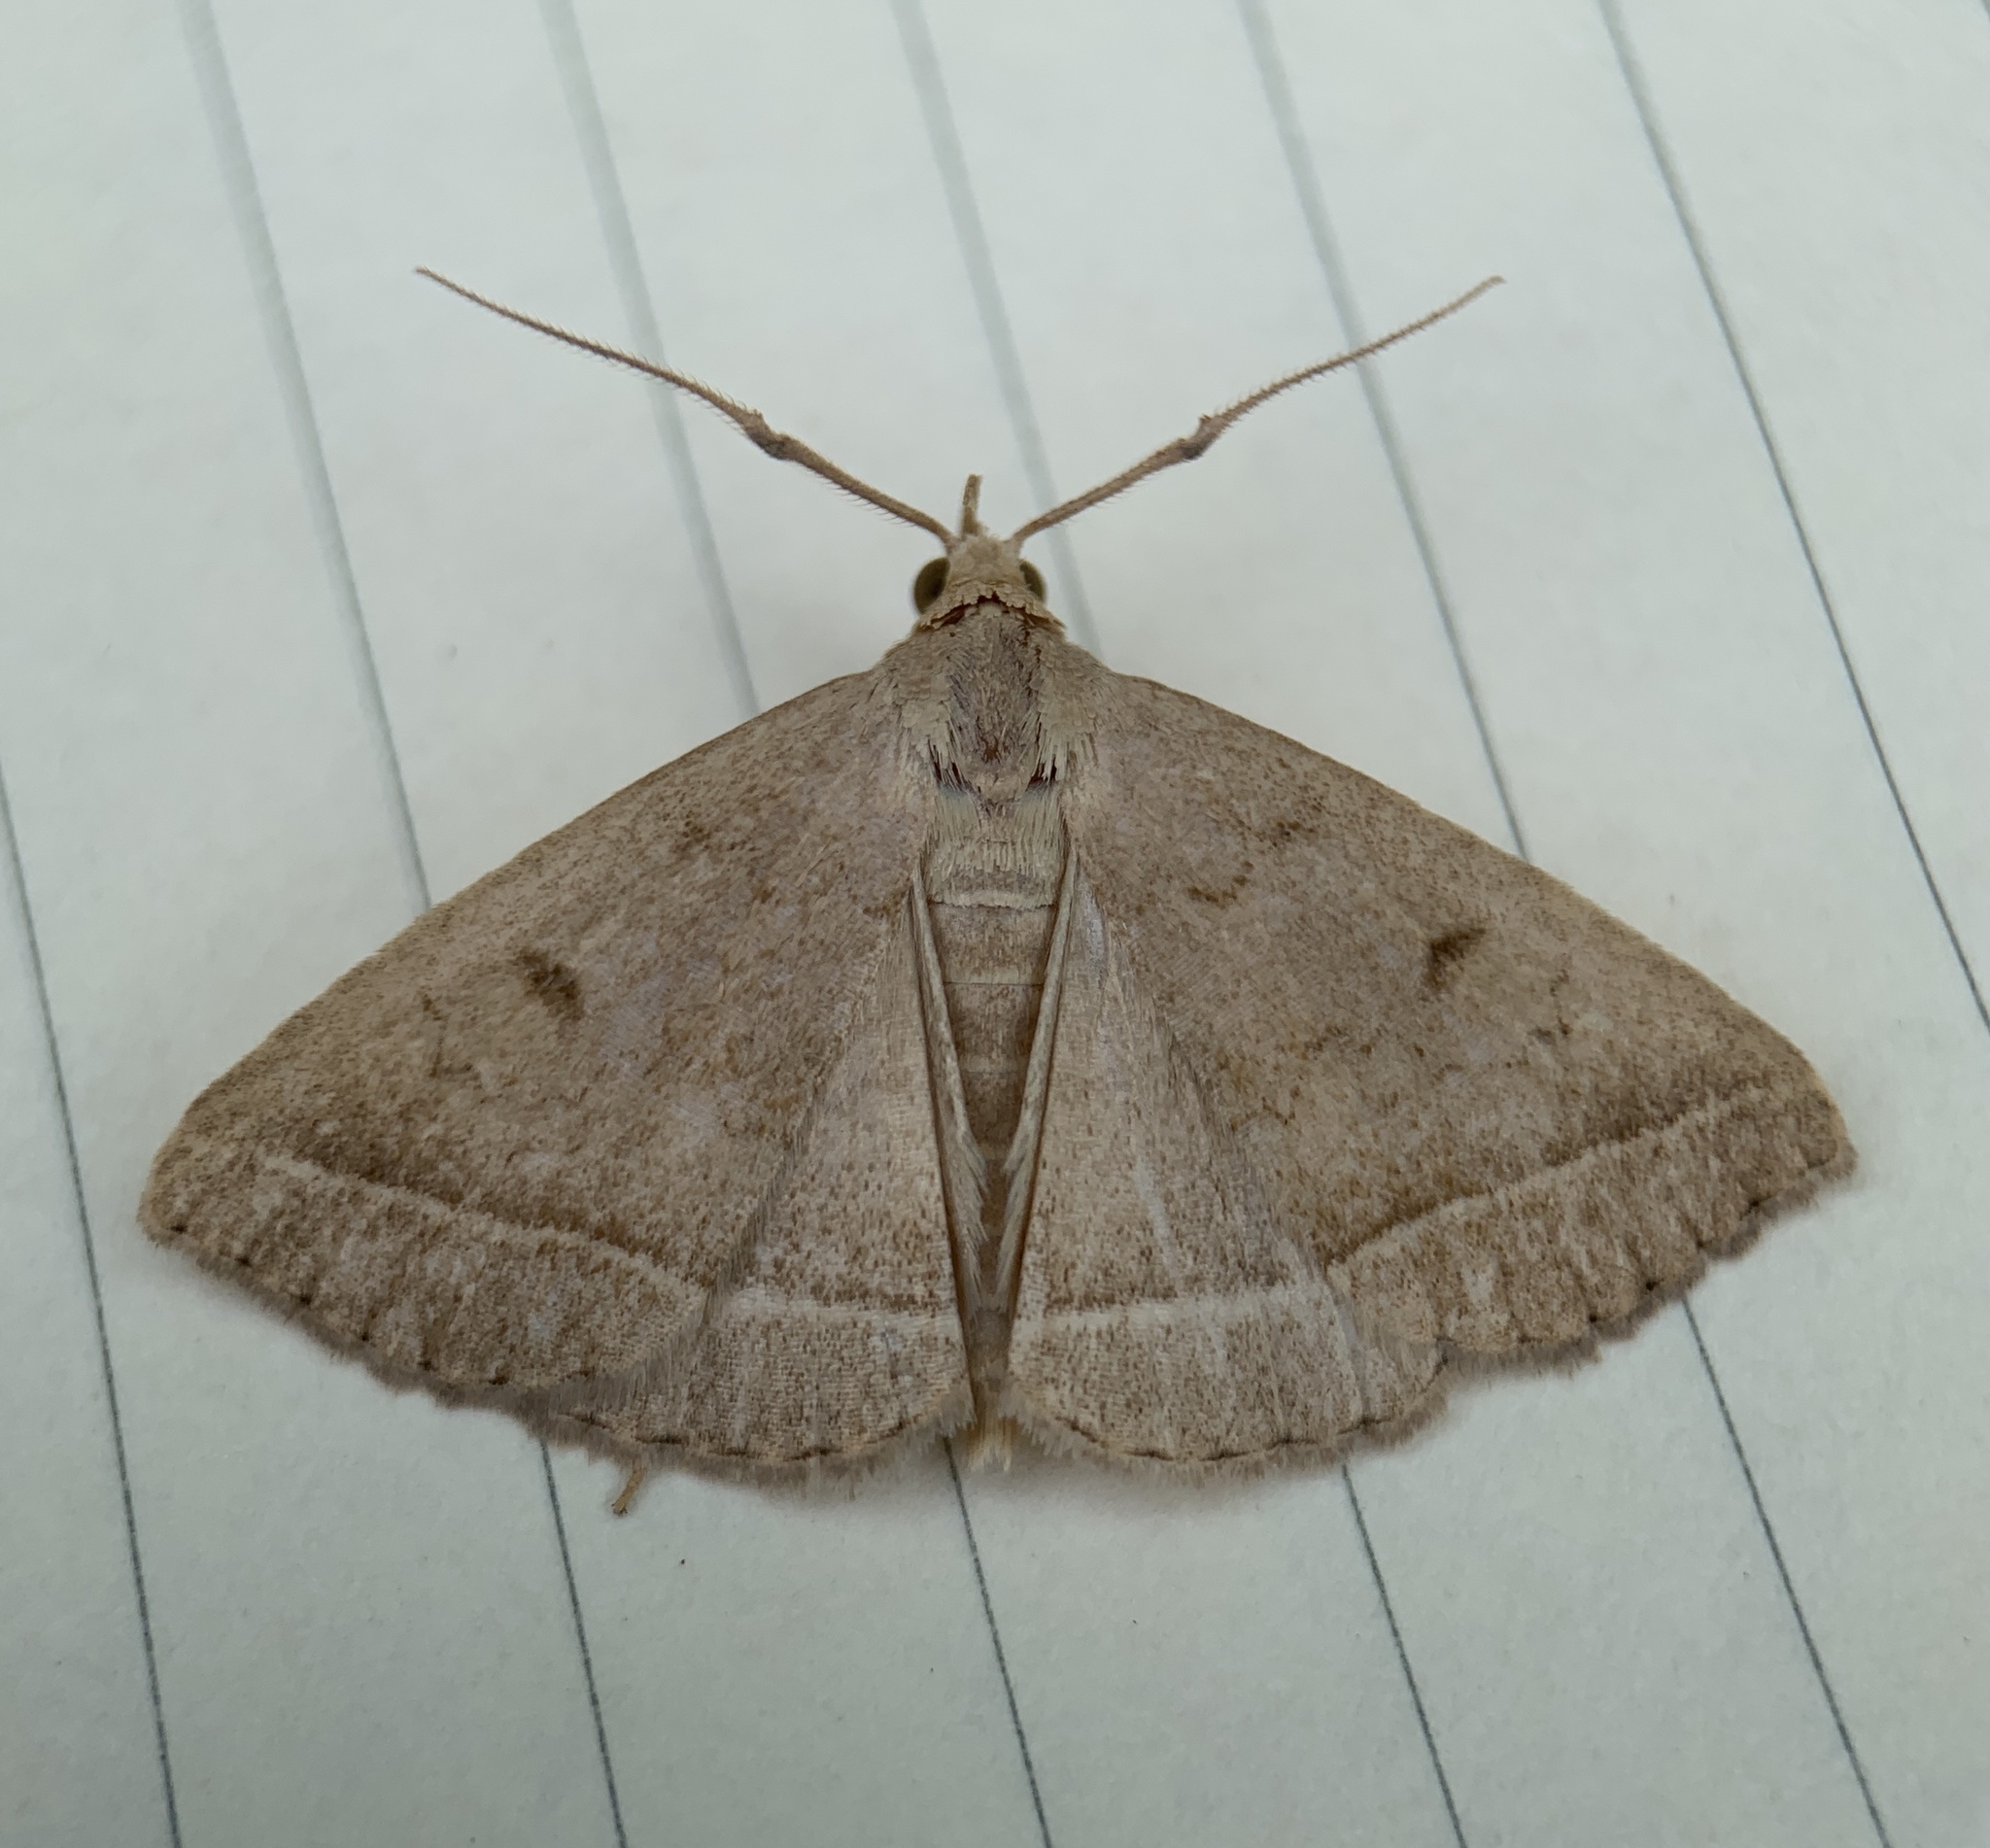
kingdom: Animalia
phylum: Arthropoda
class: Insecta
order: Lepidoptera
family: Erebidae
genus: Zanclognatha
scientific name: Zanclognatha jacchusalis
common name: Yellowish zanclognatha
